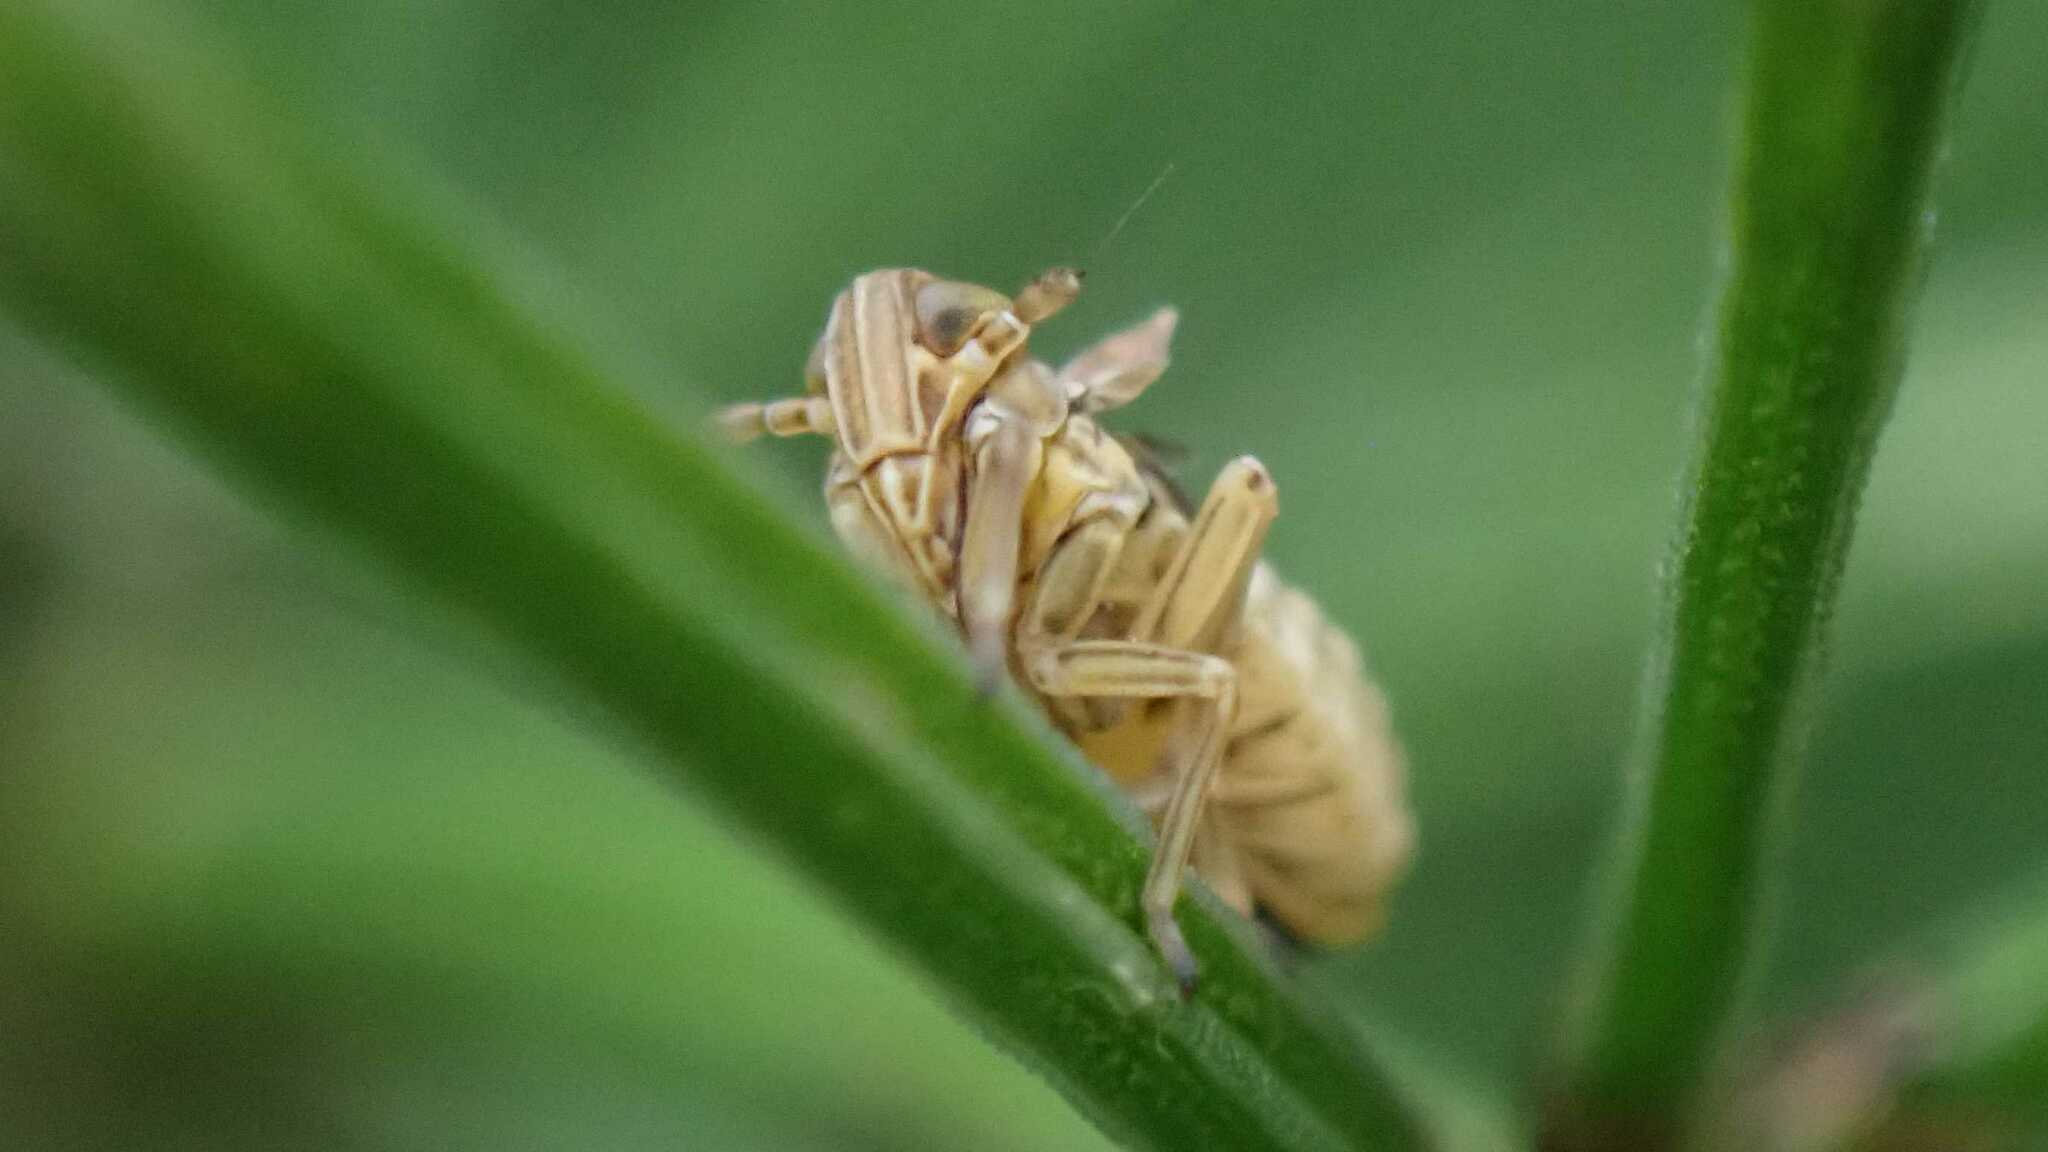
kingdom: Animalia
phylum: Arthropoda
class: Insecta
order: Hemiptera
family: Delphacidae
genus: Javesella
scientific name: Javesella stali
